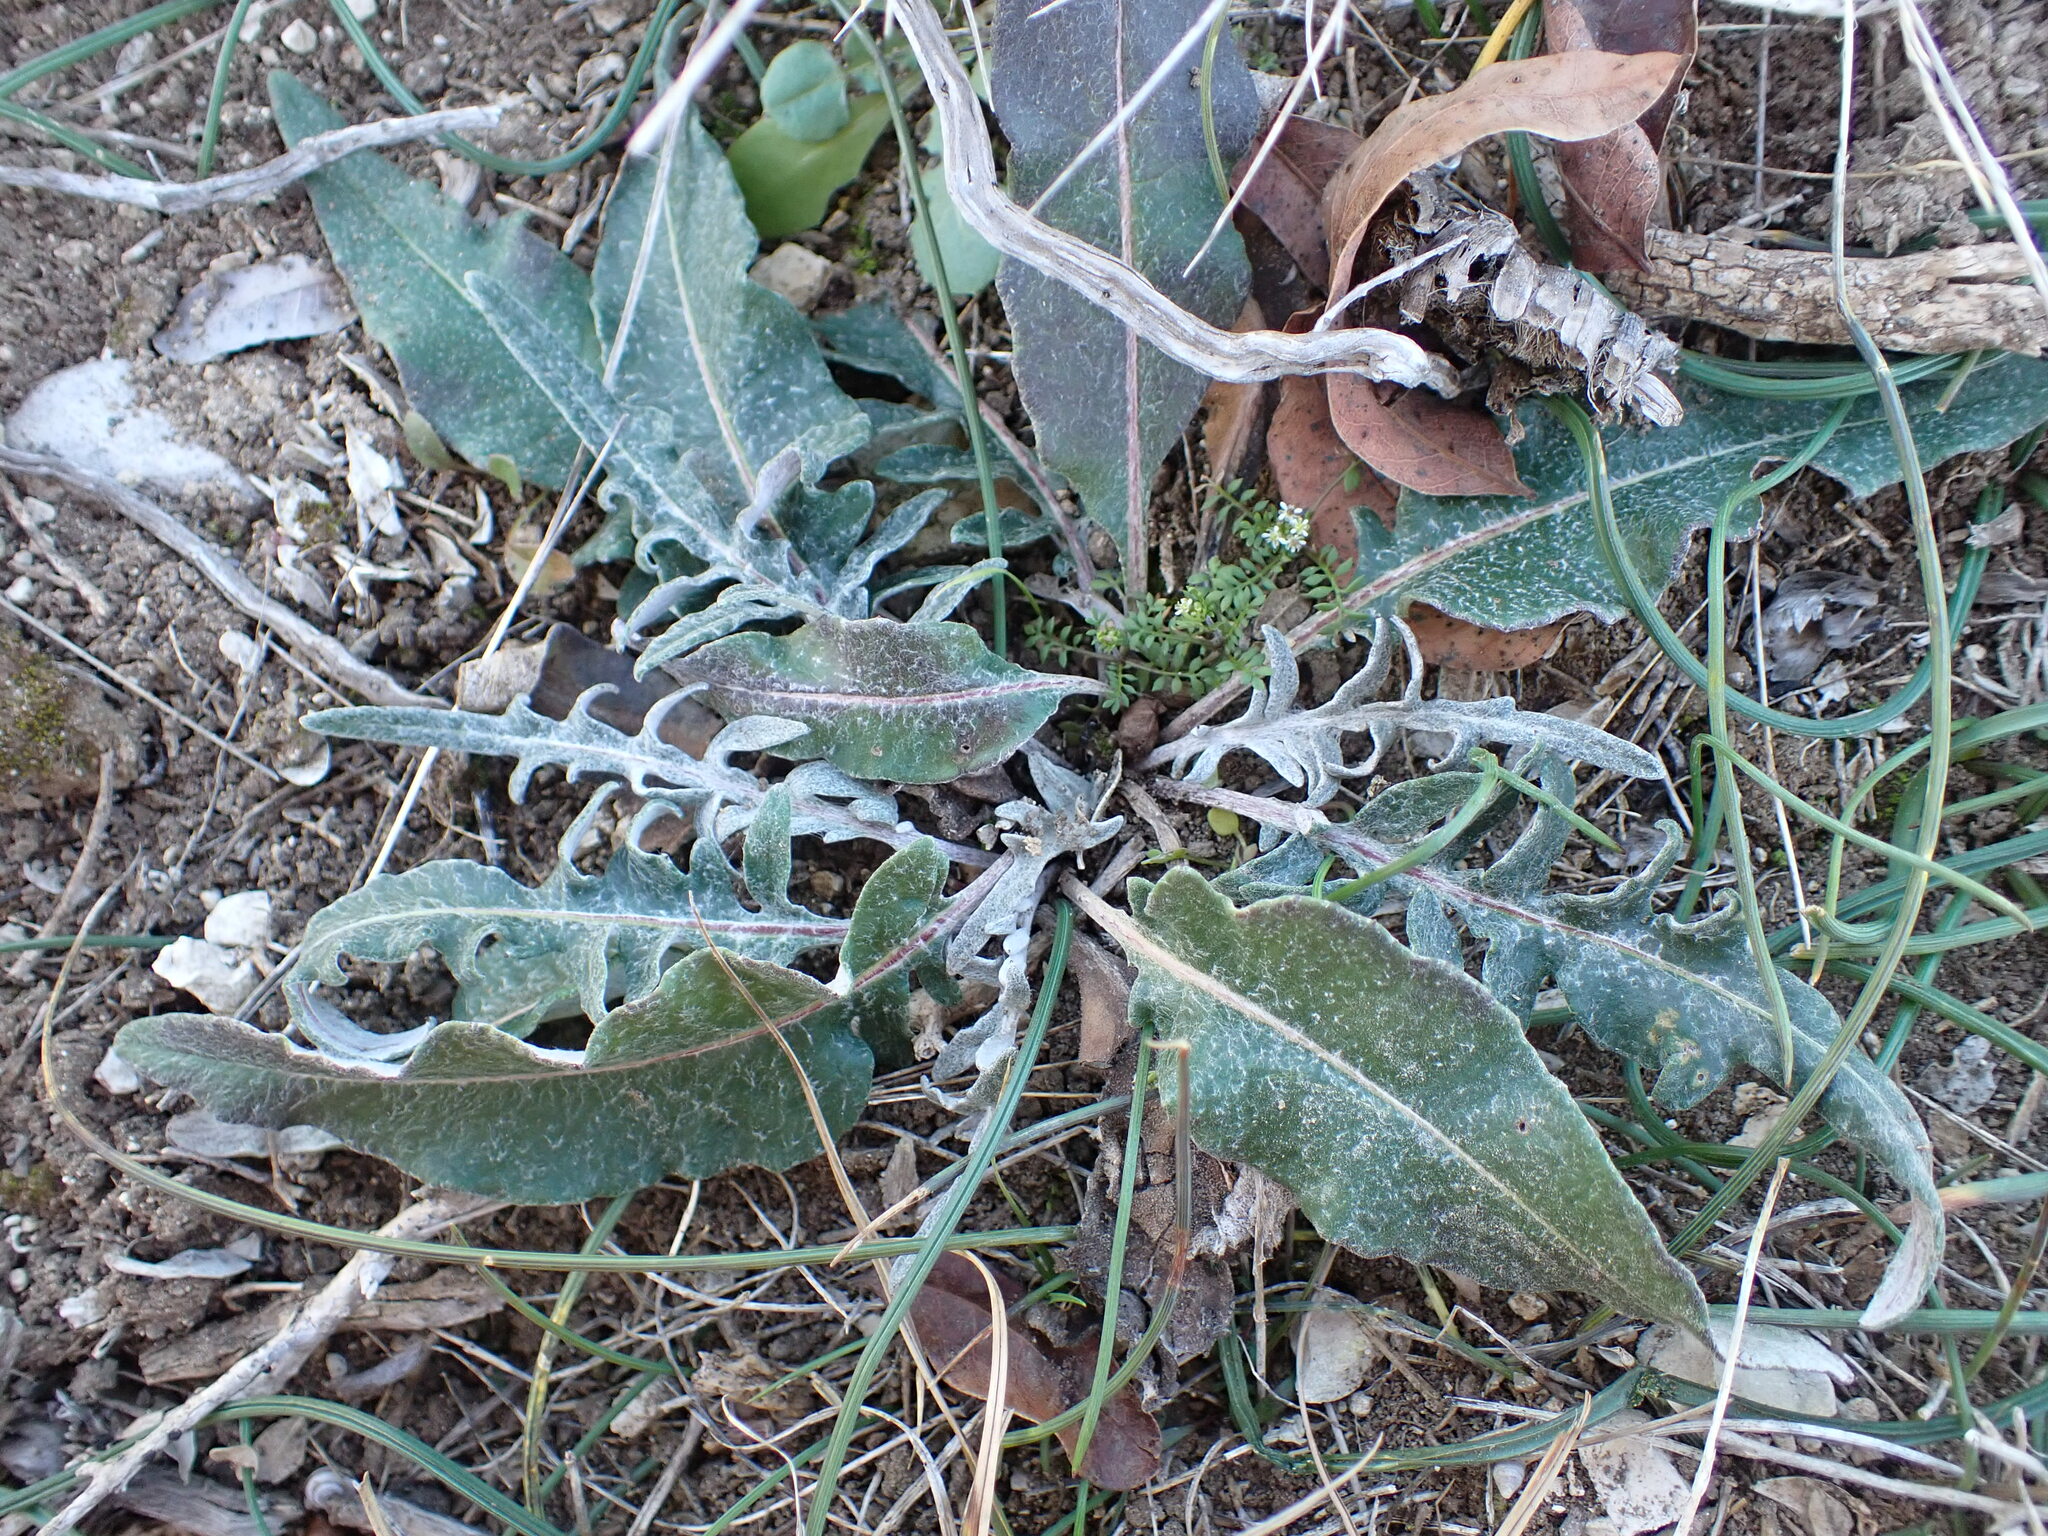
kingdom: Plantae
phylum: Tracheophyta
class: Magnoliopsida
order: Asterales
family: Asteraceae
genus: Leuzea
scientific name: Leuzea conifera
